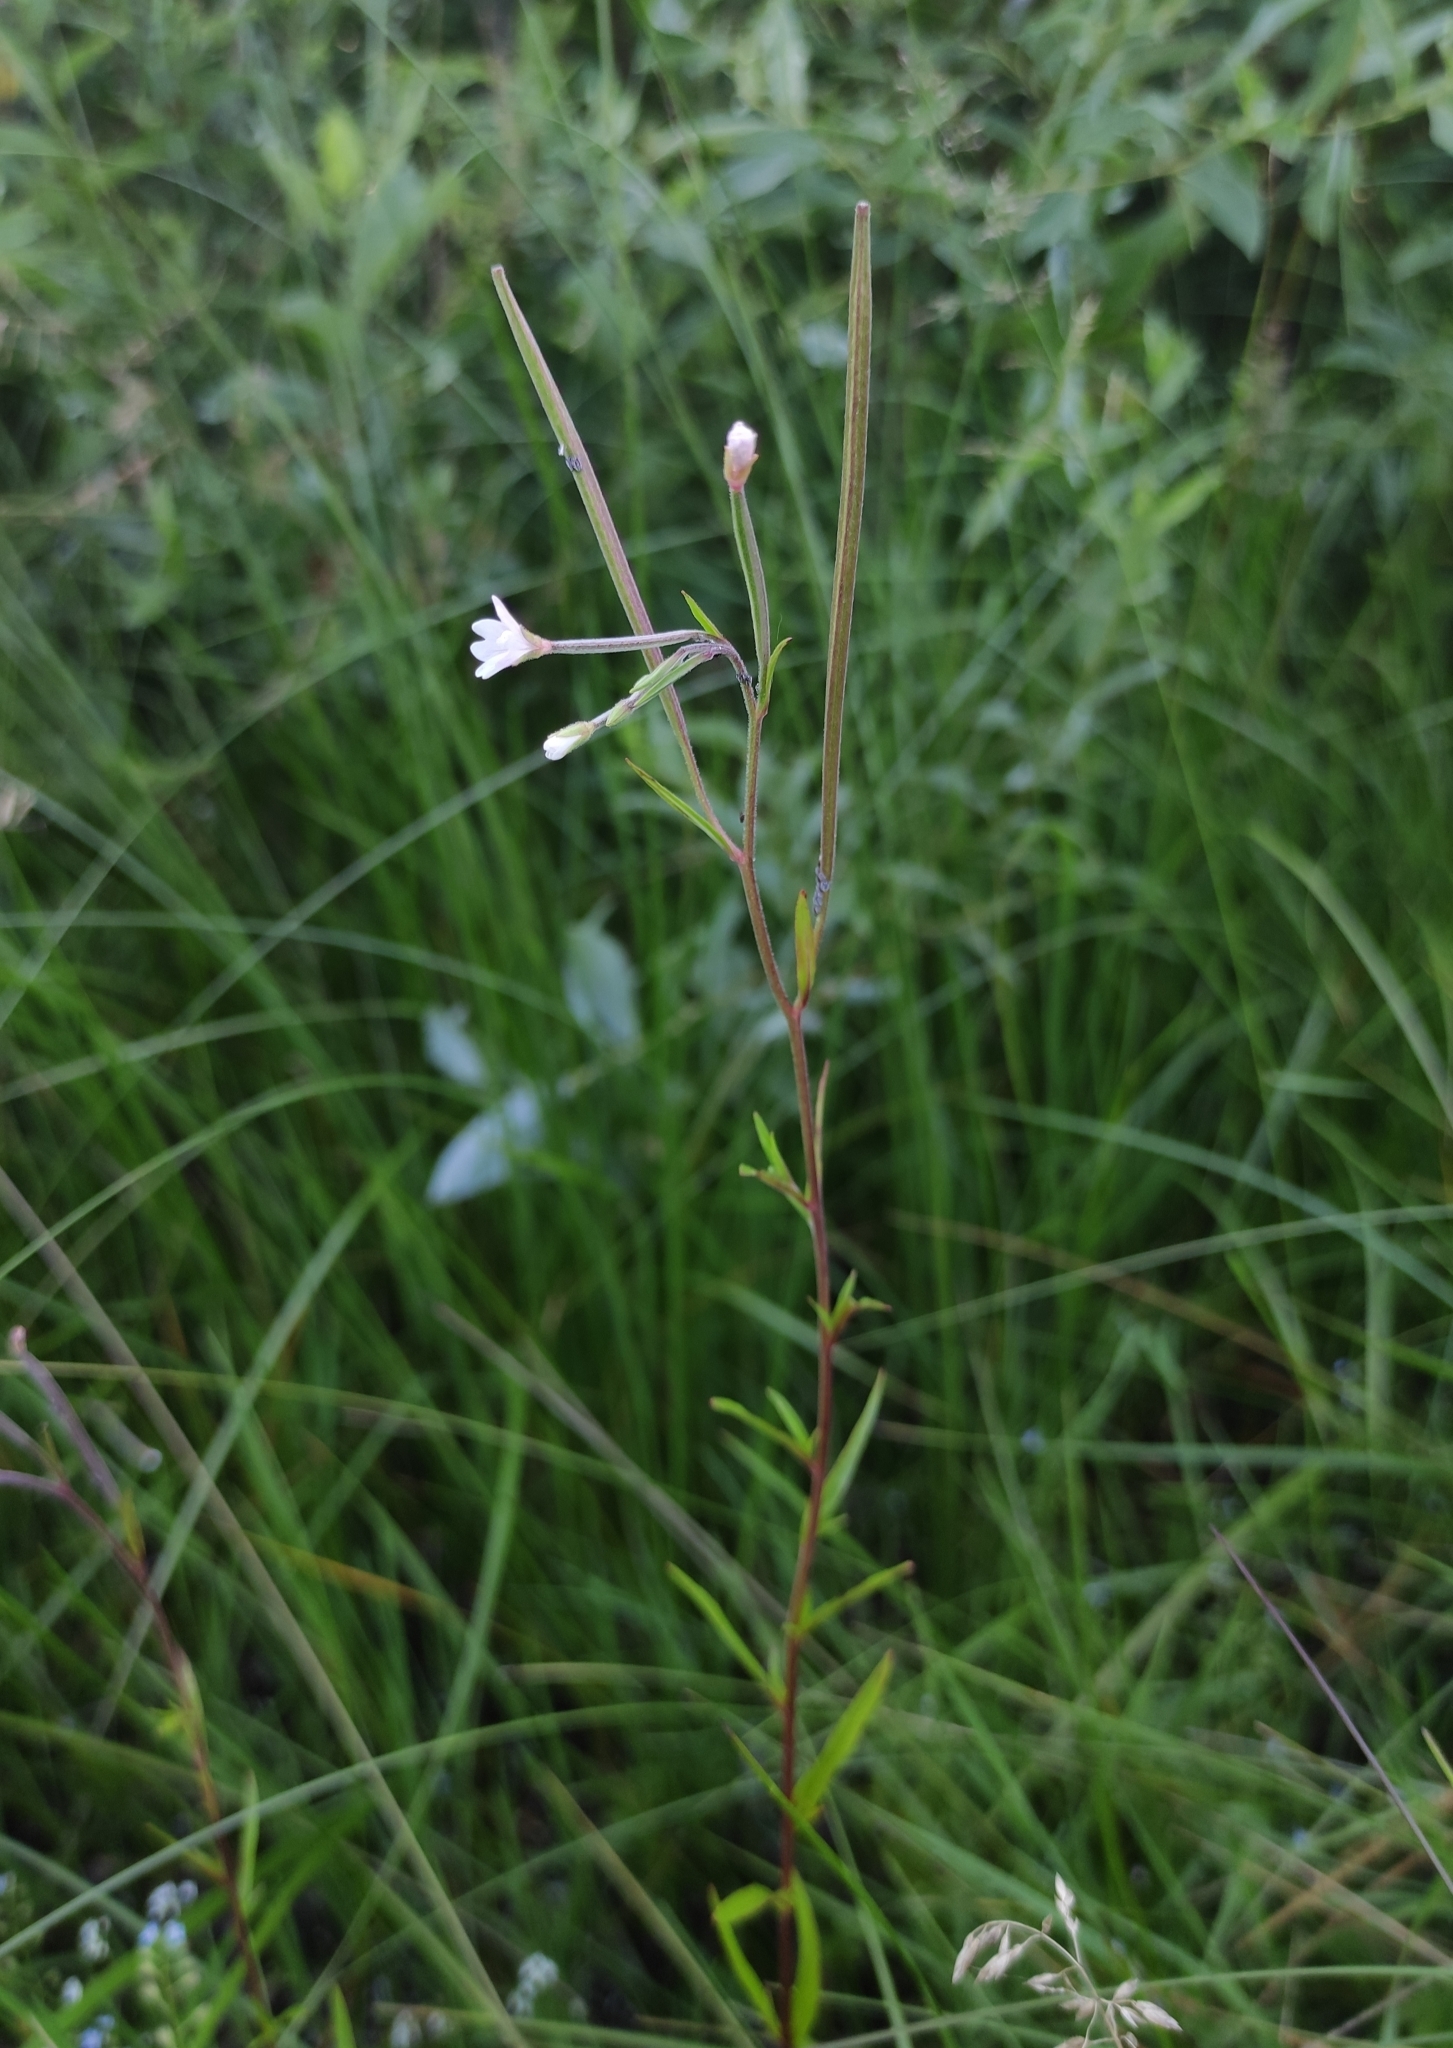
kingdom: Plantae
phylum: Tracheophyta
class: Magnoliopsida
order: Myrtales
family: Onagraceae
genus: Epilobium
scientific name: Epilobium palustre
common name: Marsh willowherb
